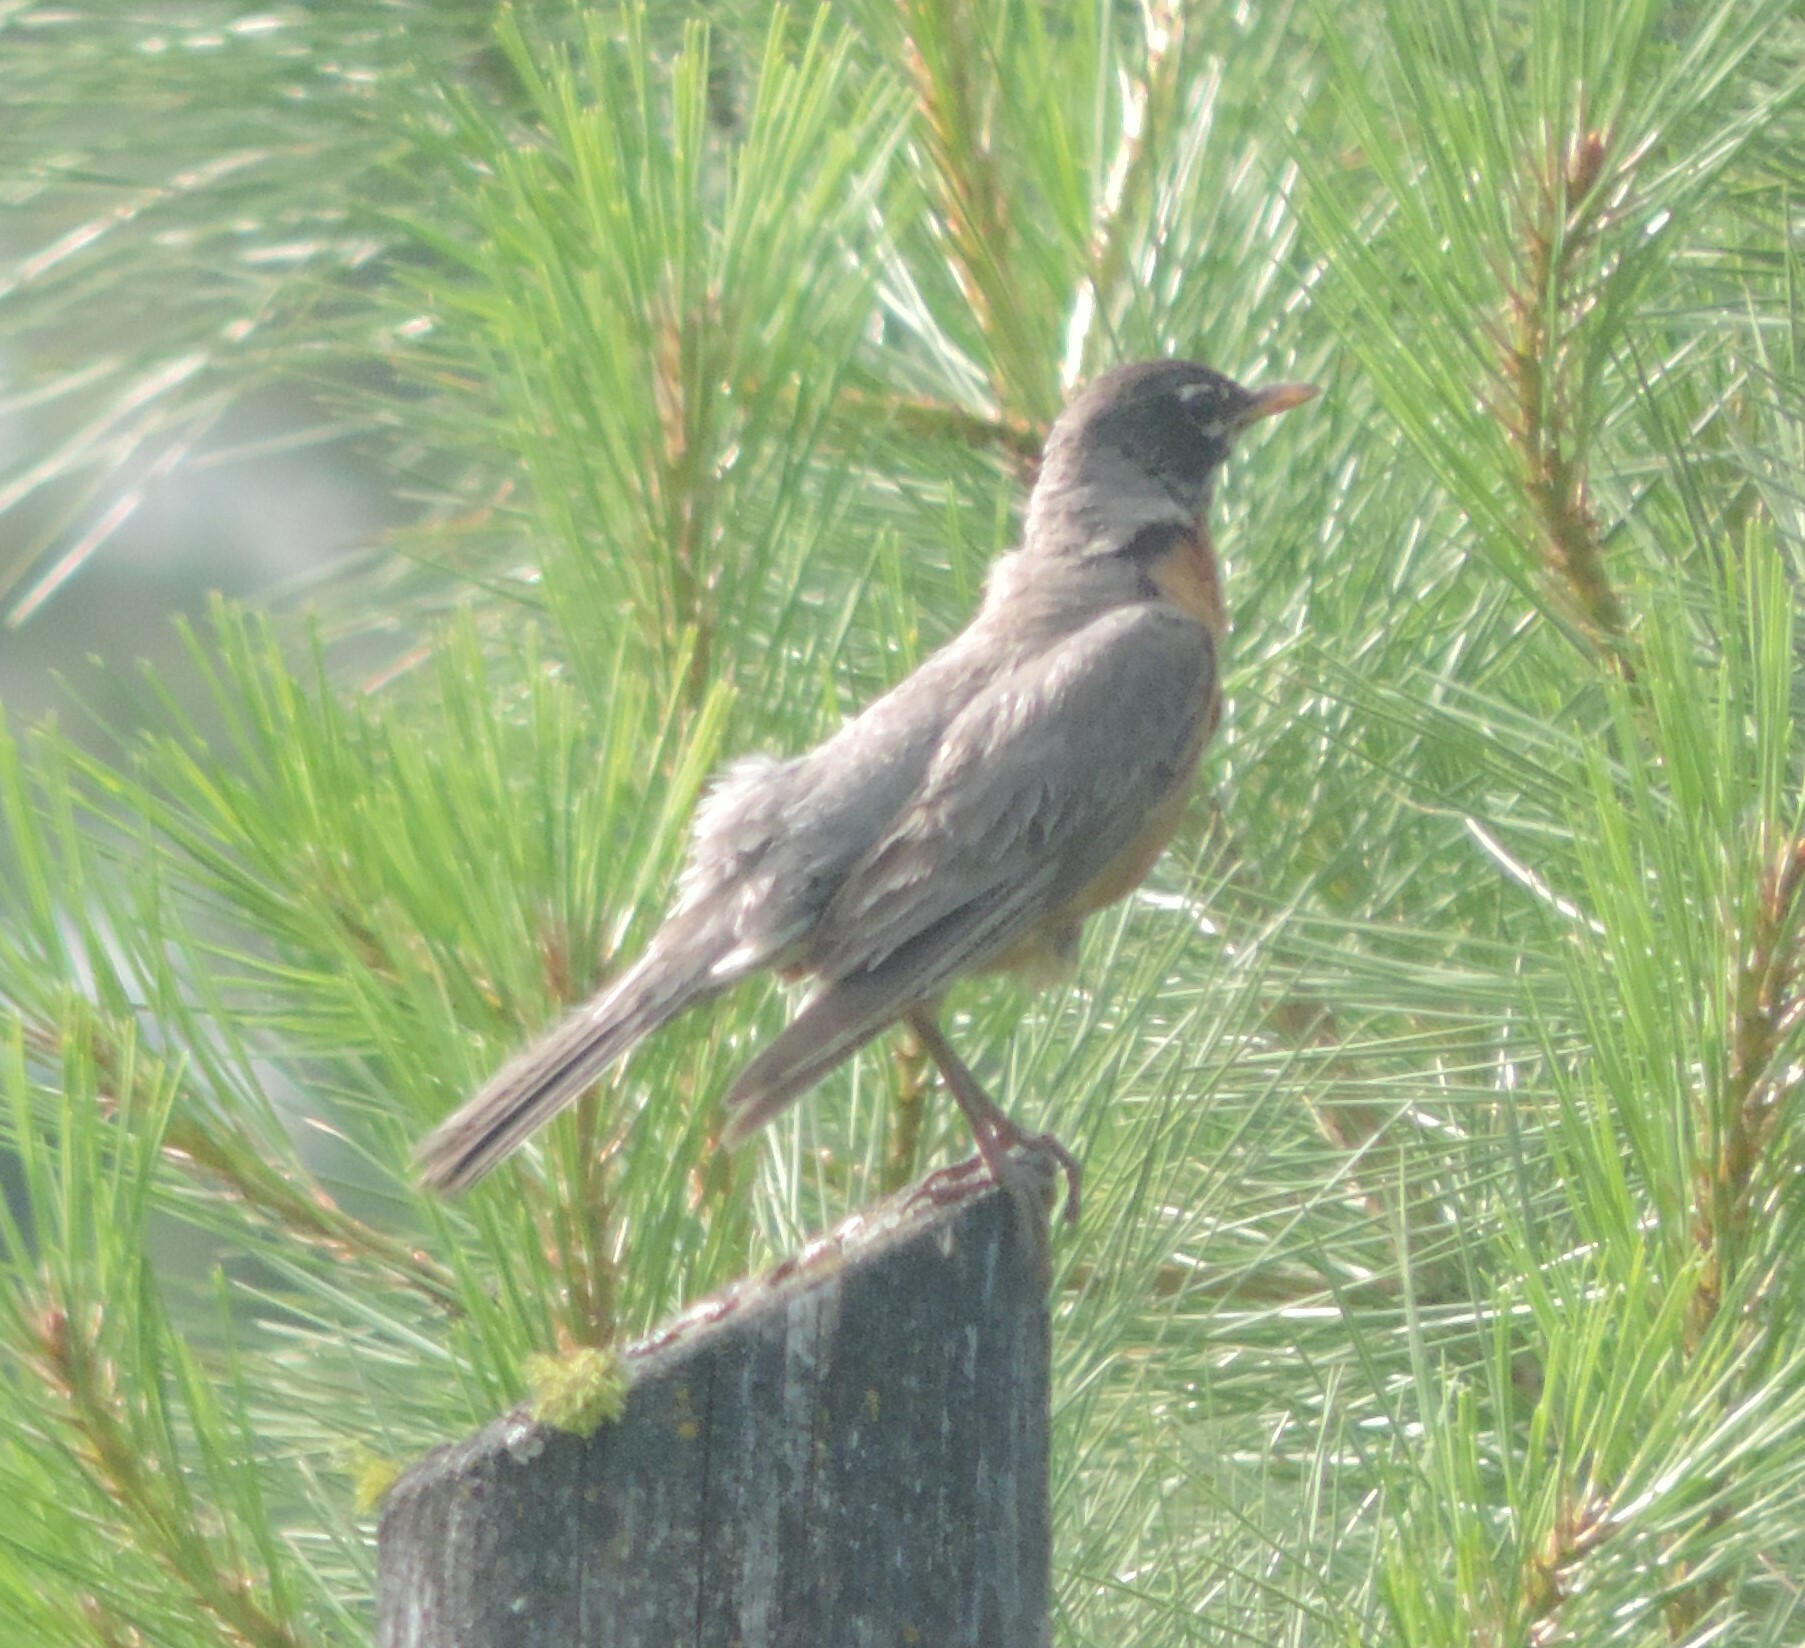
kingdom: Animalia
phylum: Chordata
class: Aves
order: Passeriformes
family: Turdidae
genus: Turdus
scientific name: Turdus migratorius
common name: American robin
